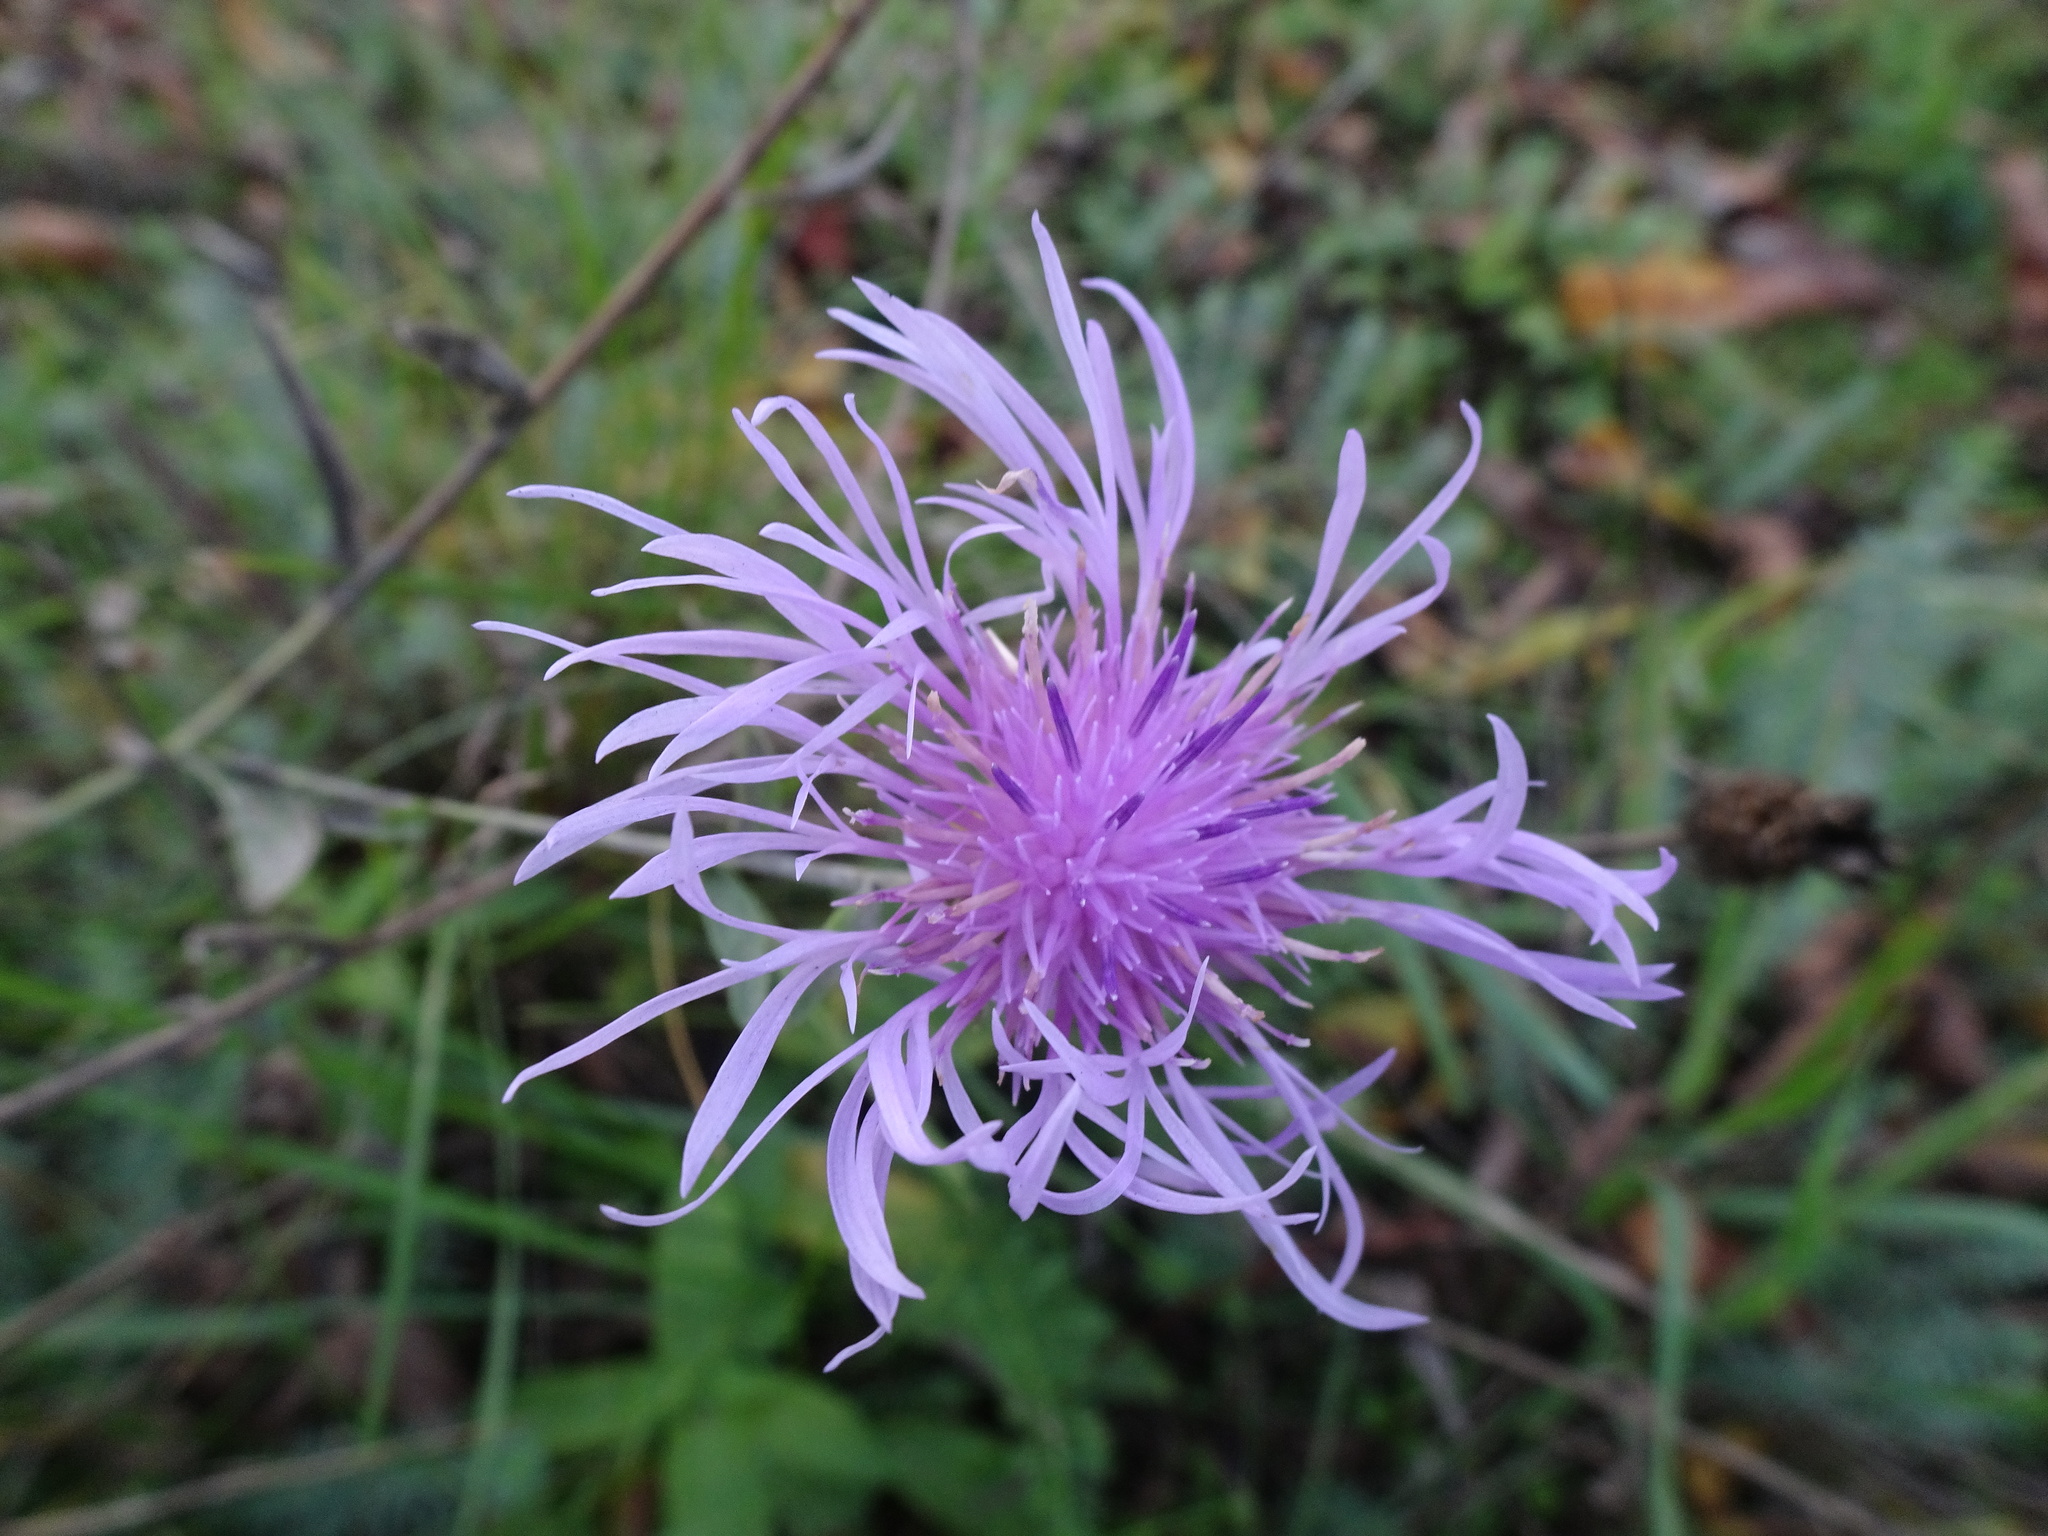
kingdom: Plantae
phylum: Tracheophyta
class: Magnoliopsida
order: Asterales
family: Asteraceae
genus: Centaurea
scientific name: Centaurea jacea
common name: Brown knapweed
